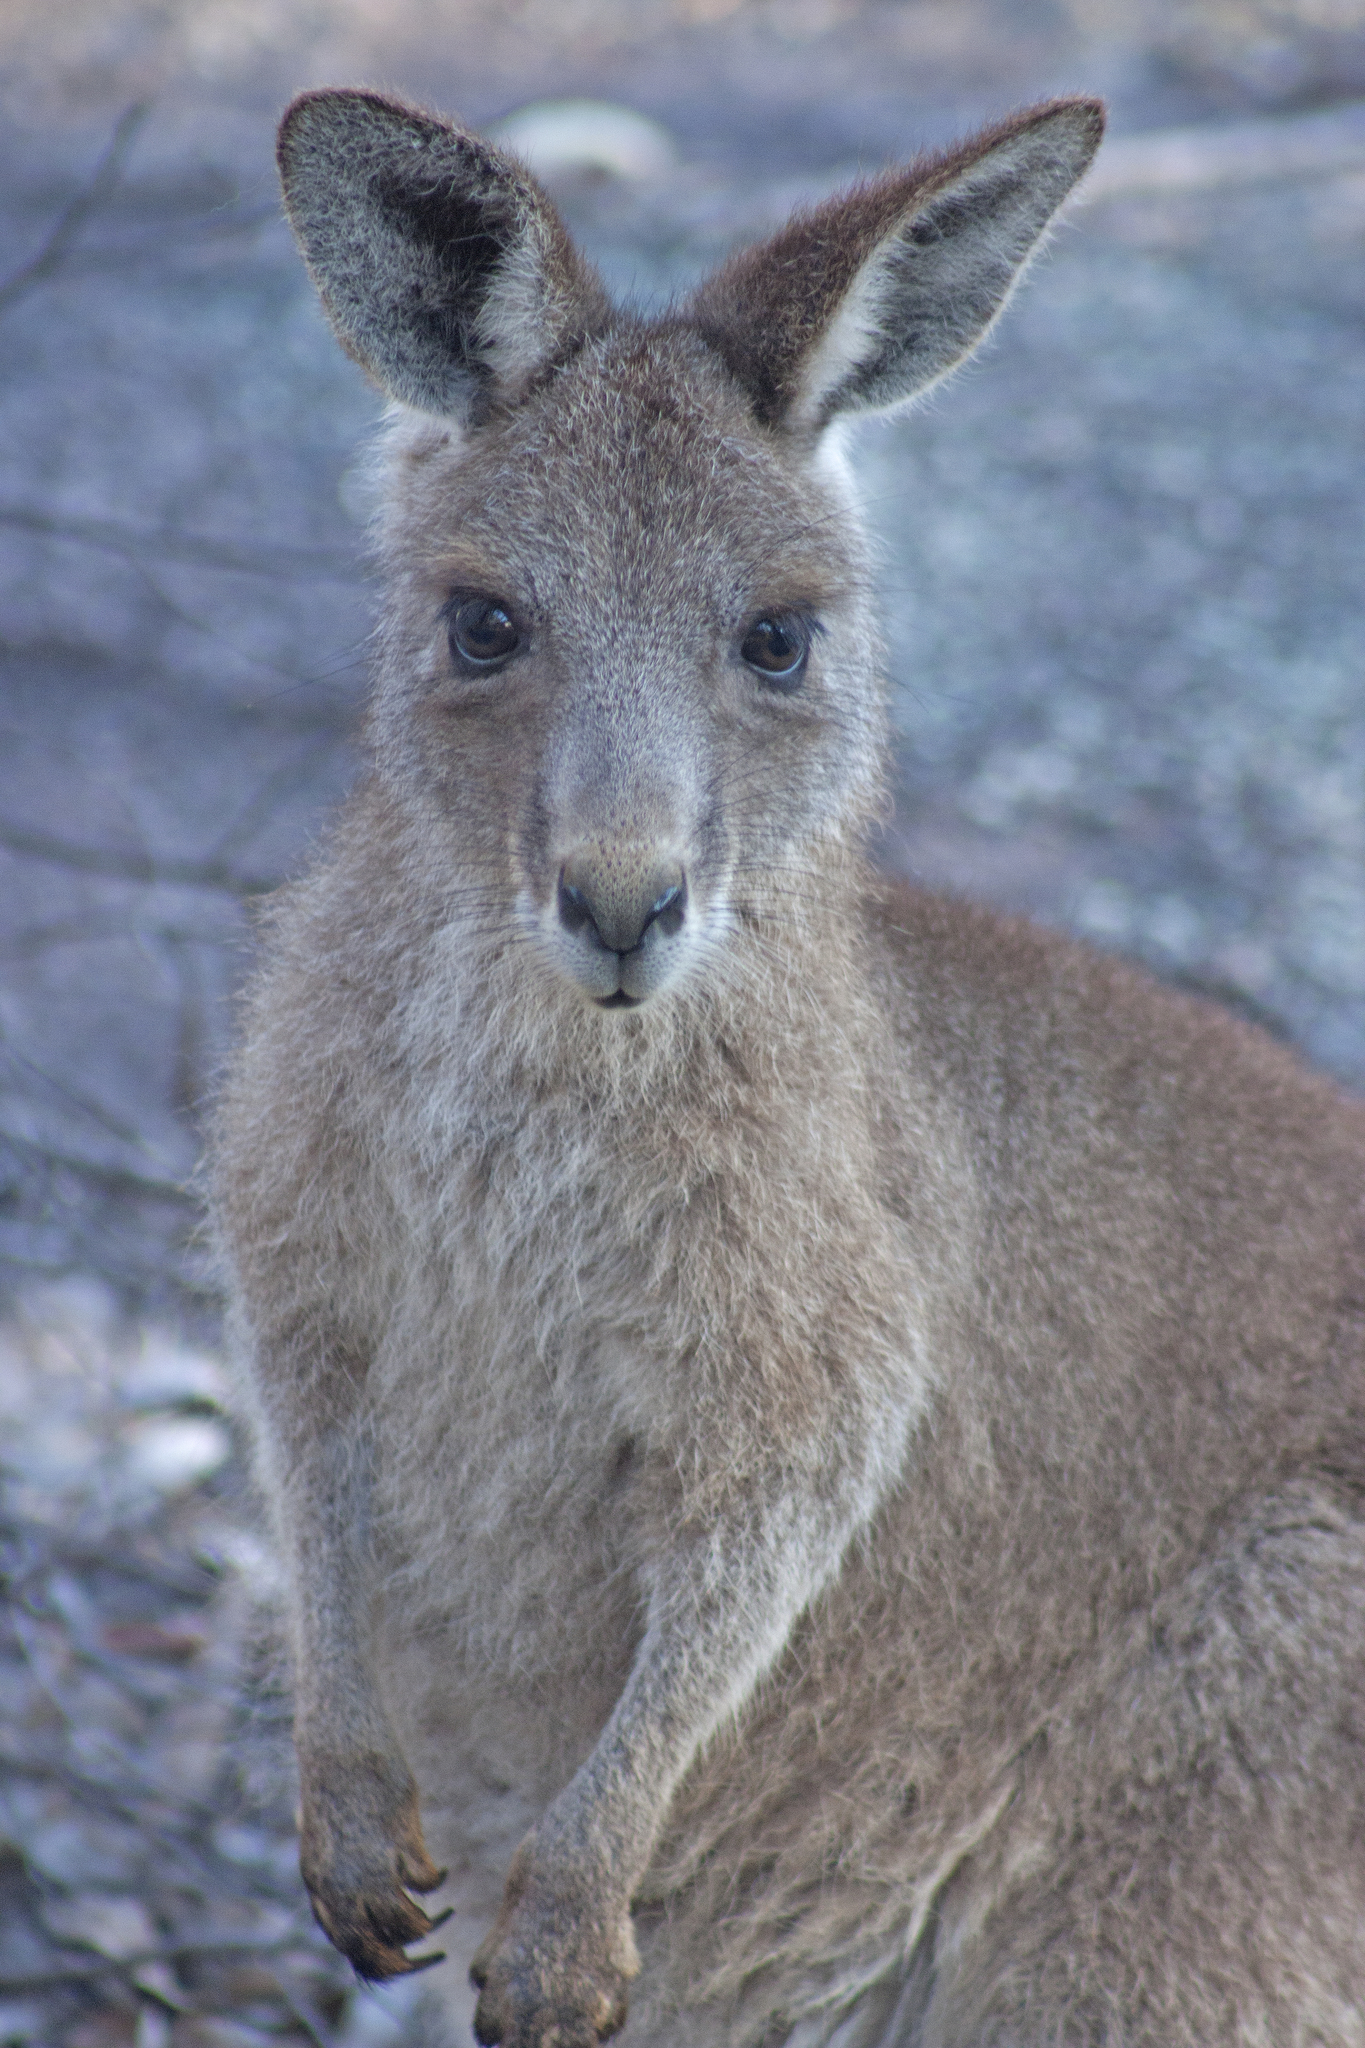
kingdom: Animalia
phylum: Chordata
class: Mammalia
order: Diprotodontia
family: Macropodidae
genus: Macropus
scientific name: Macropus giganteus
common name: Eastern grey kangaroo
